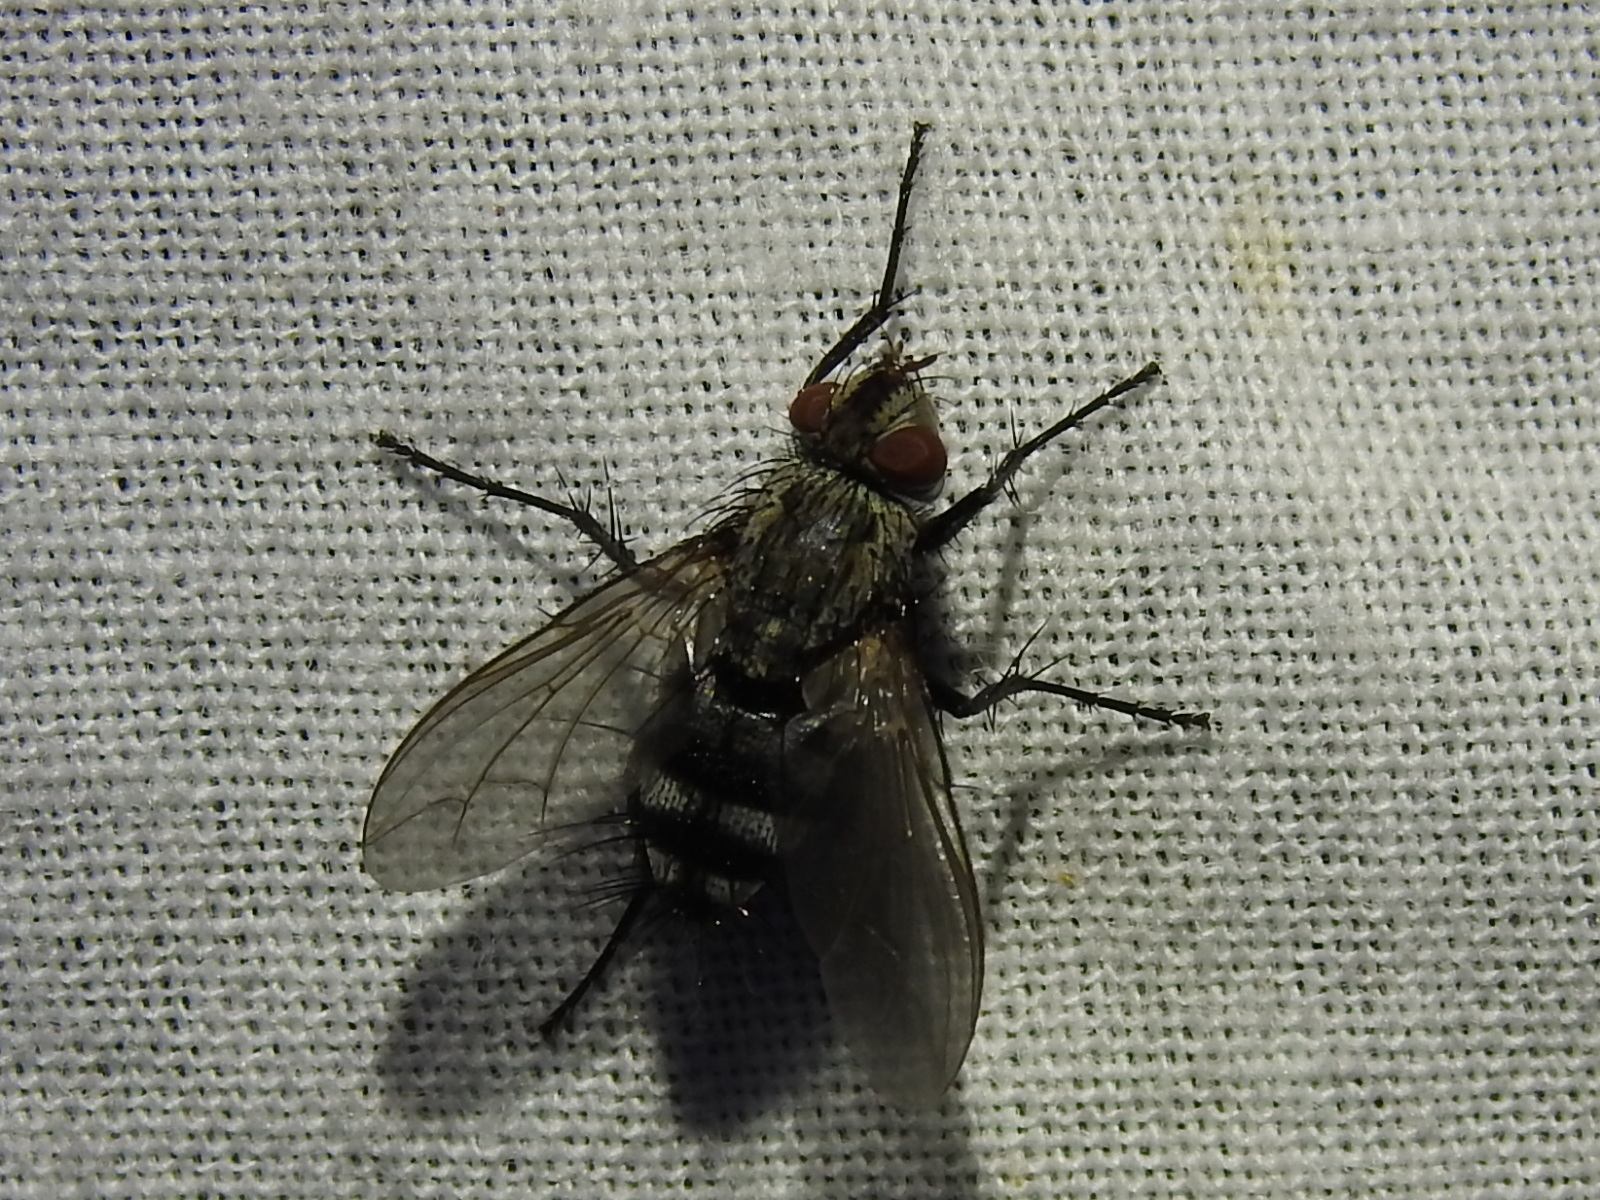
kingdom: Animalia
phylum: Arthropoda
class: Insecta
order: Diptera
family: Tachinidae
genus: Microphthalma
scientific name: Microphthalma disjuncta
